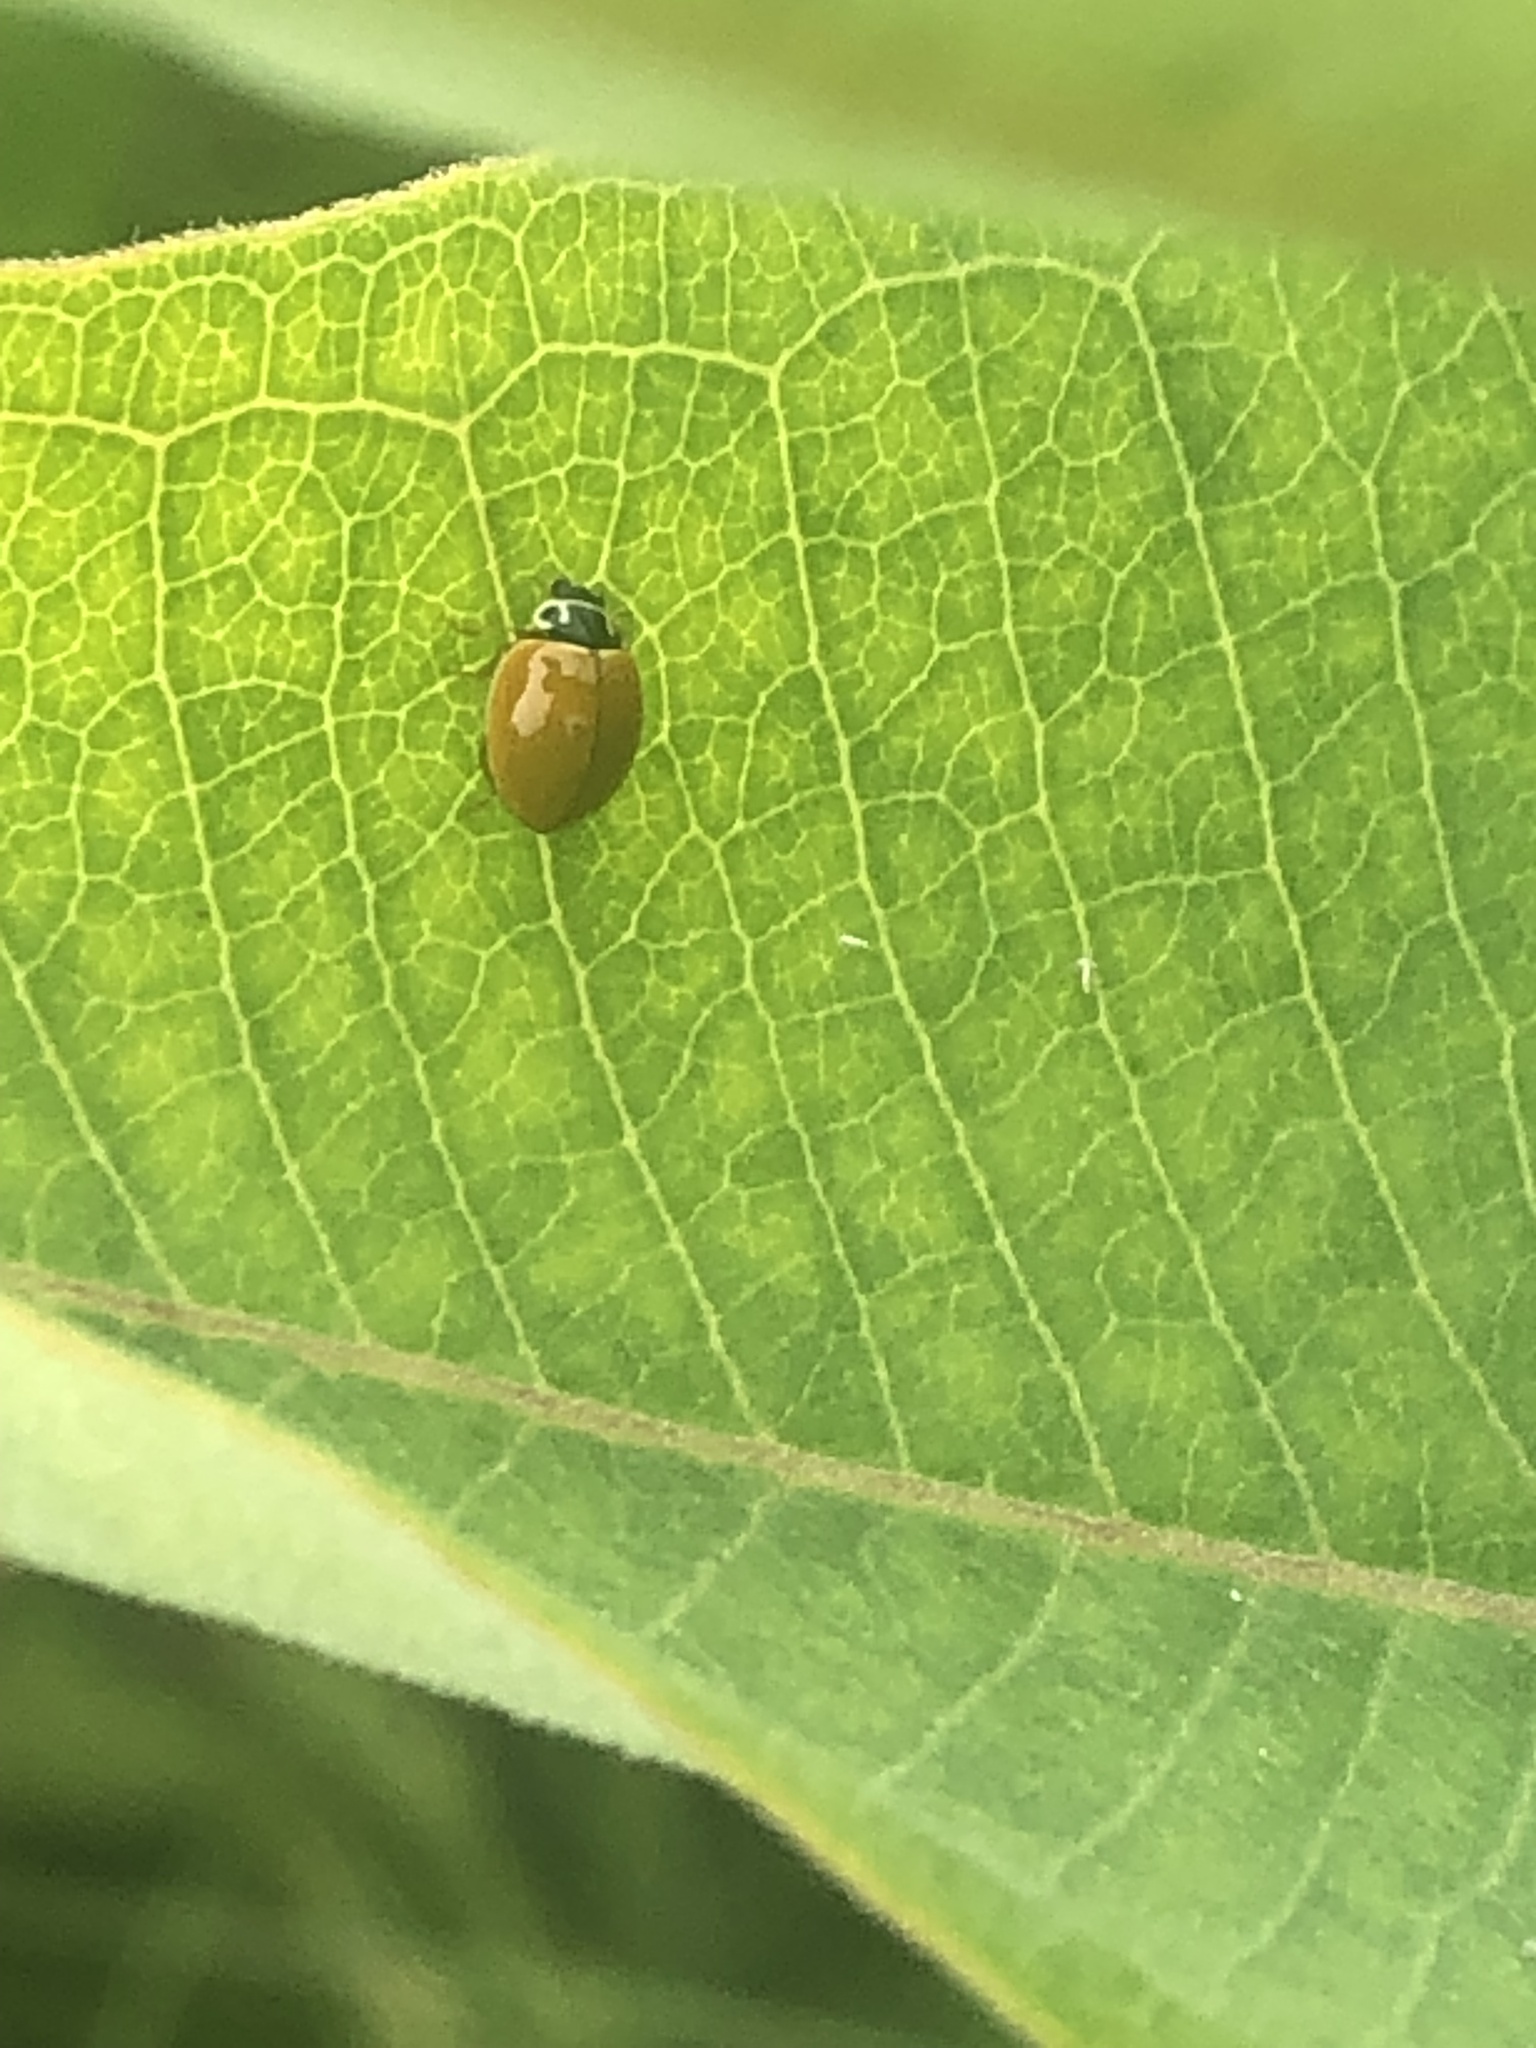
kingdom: Animalia
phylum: Arthropoda
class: Insecta
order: Coleoptera
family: Coccinellidae
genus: Cycloneda
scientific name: Cycloneda munda
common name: Polished lady beetle
